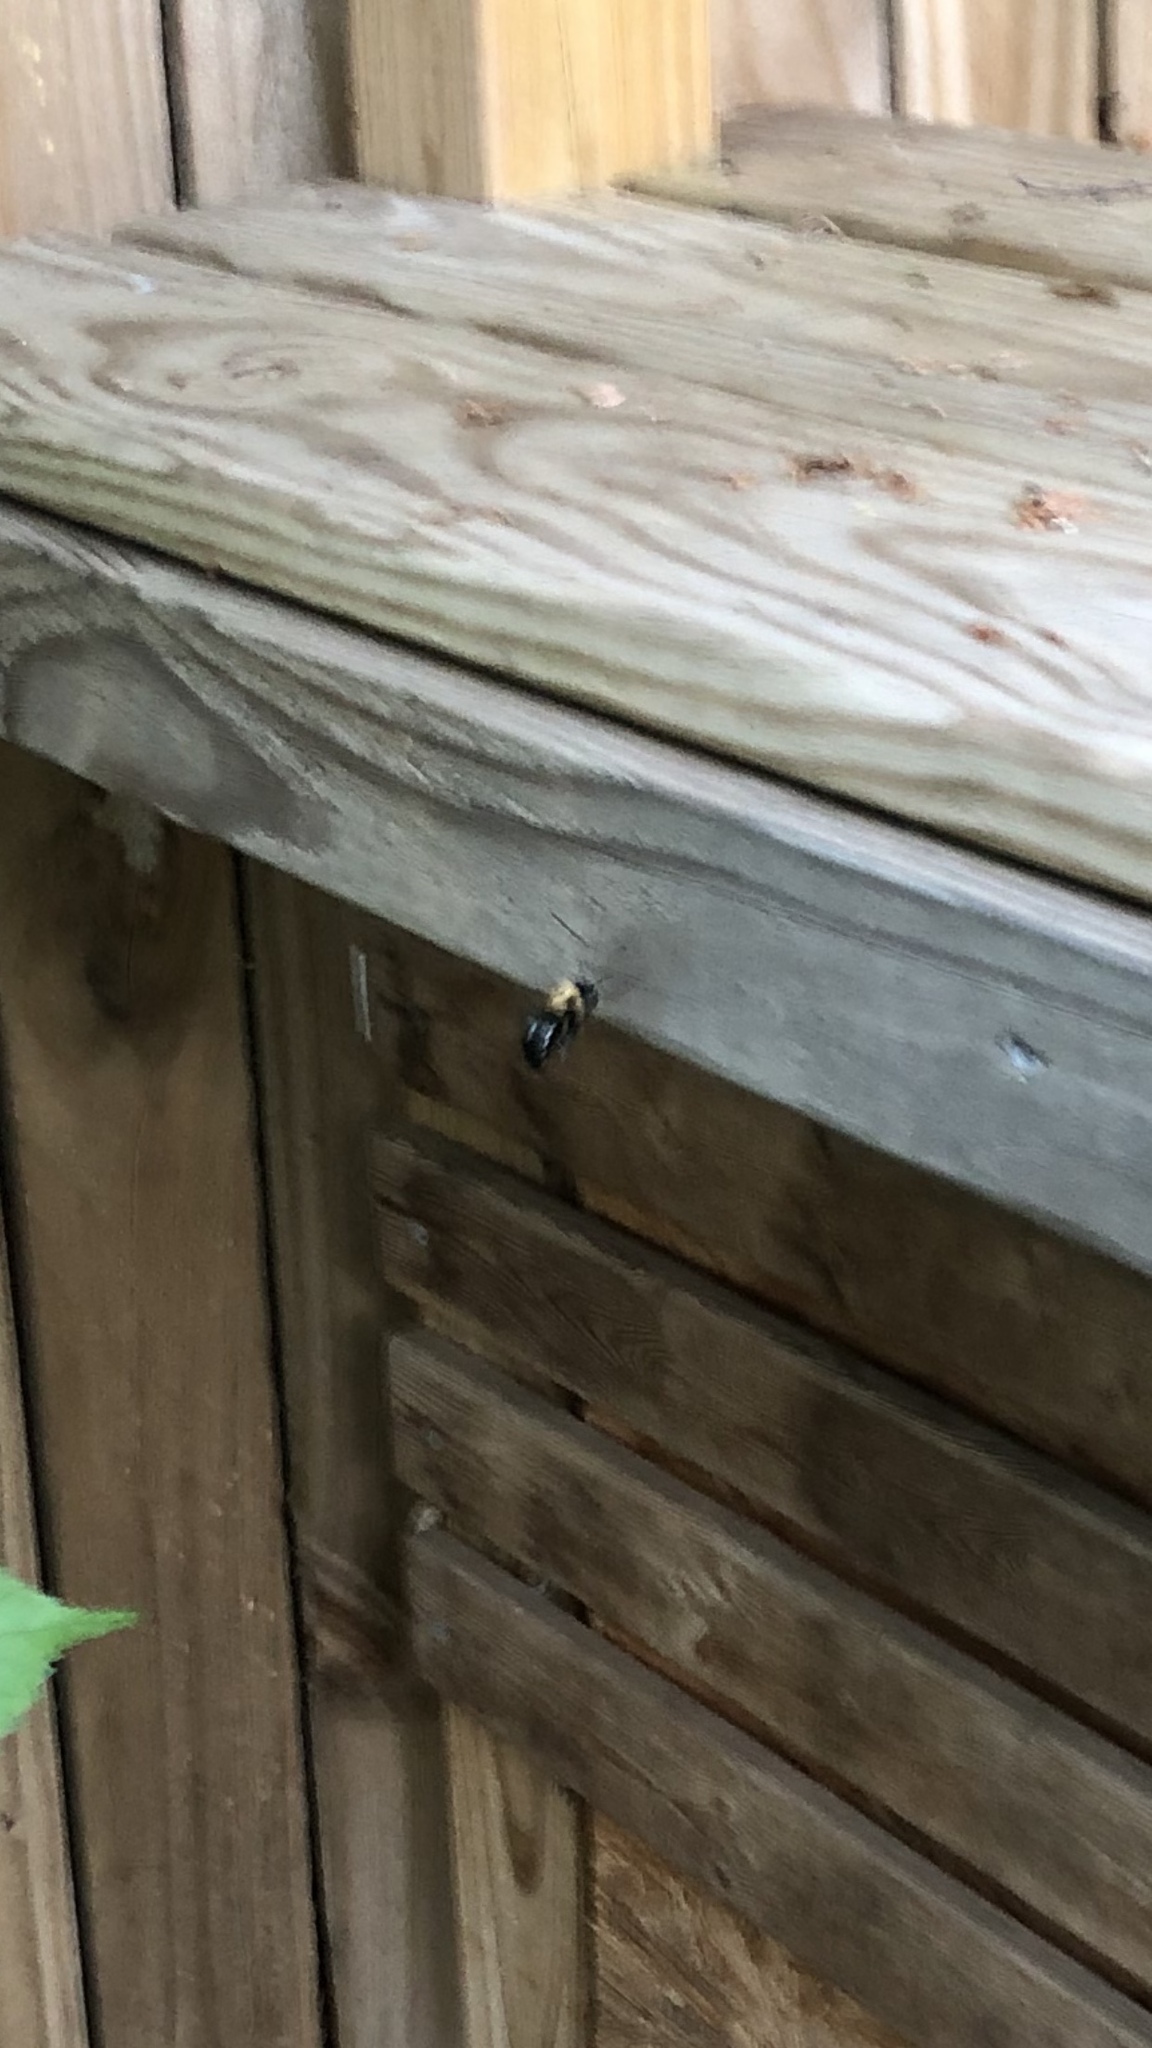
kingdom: Animalia
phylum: Arthropoda
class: Insecta
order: Hymenoptera
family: Apidae
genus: Xylocopa
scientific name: Xylocopa virginica
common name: Carpenter bee
